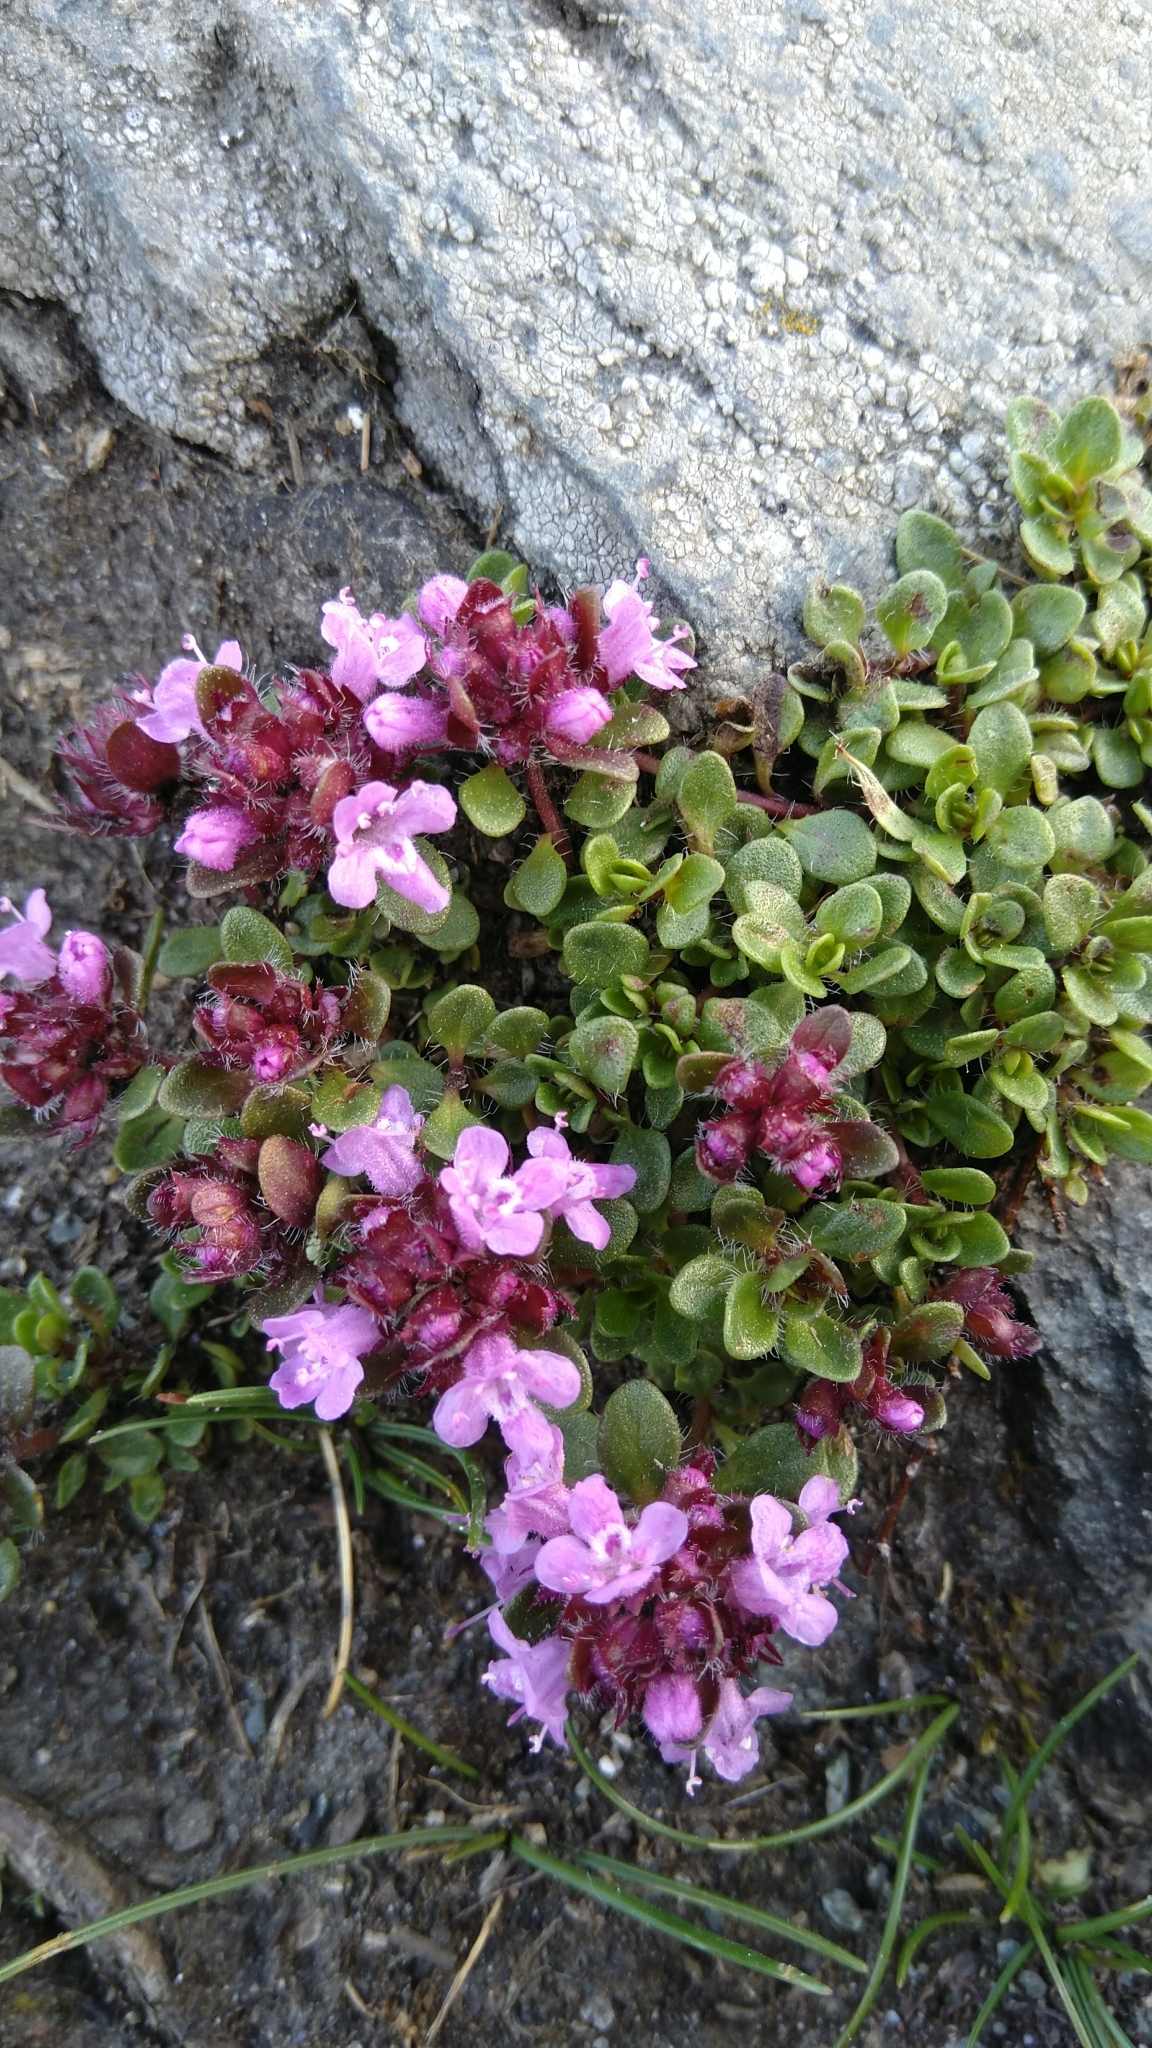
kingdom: Plantae
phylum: Tracheophyta
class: Magnoliopsida
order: Lamiales
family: Lamiaceae
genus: Thymus
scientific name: Thymus praecox
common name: Wild thyme
